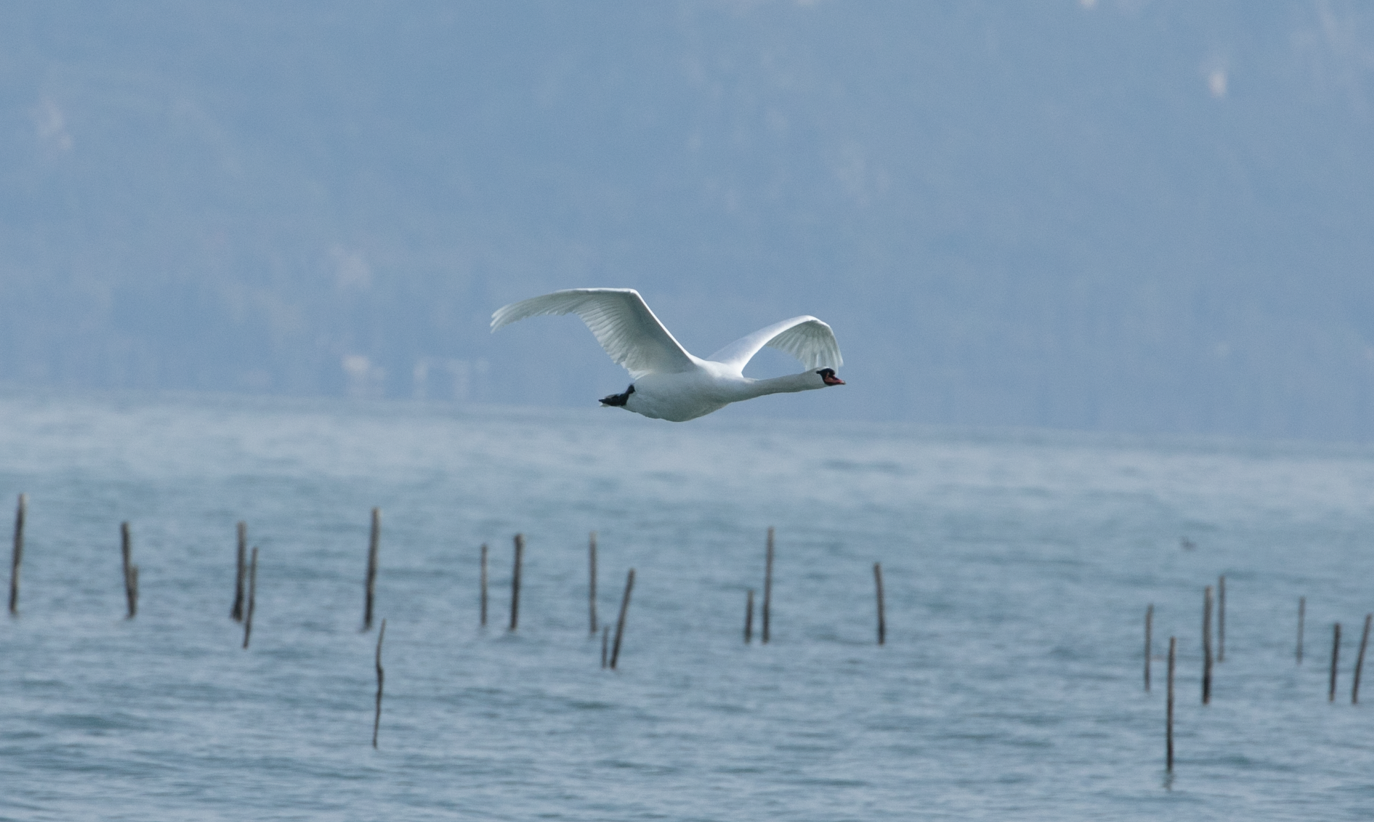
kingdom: Animalia
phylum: Chordata
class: Aves
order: Anseriformes
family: Anatidae
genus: Cygnus
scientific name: Cygnus olor
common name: Mute swan
